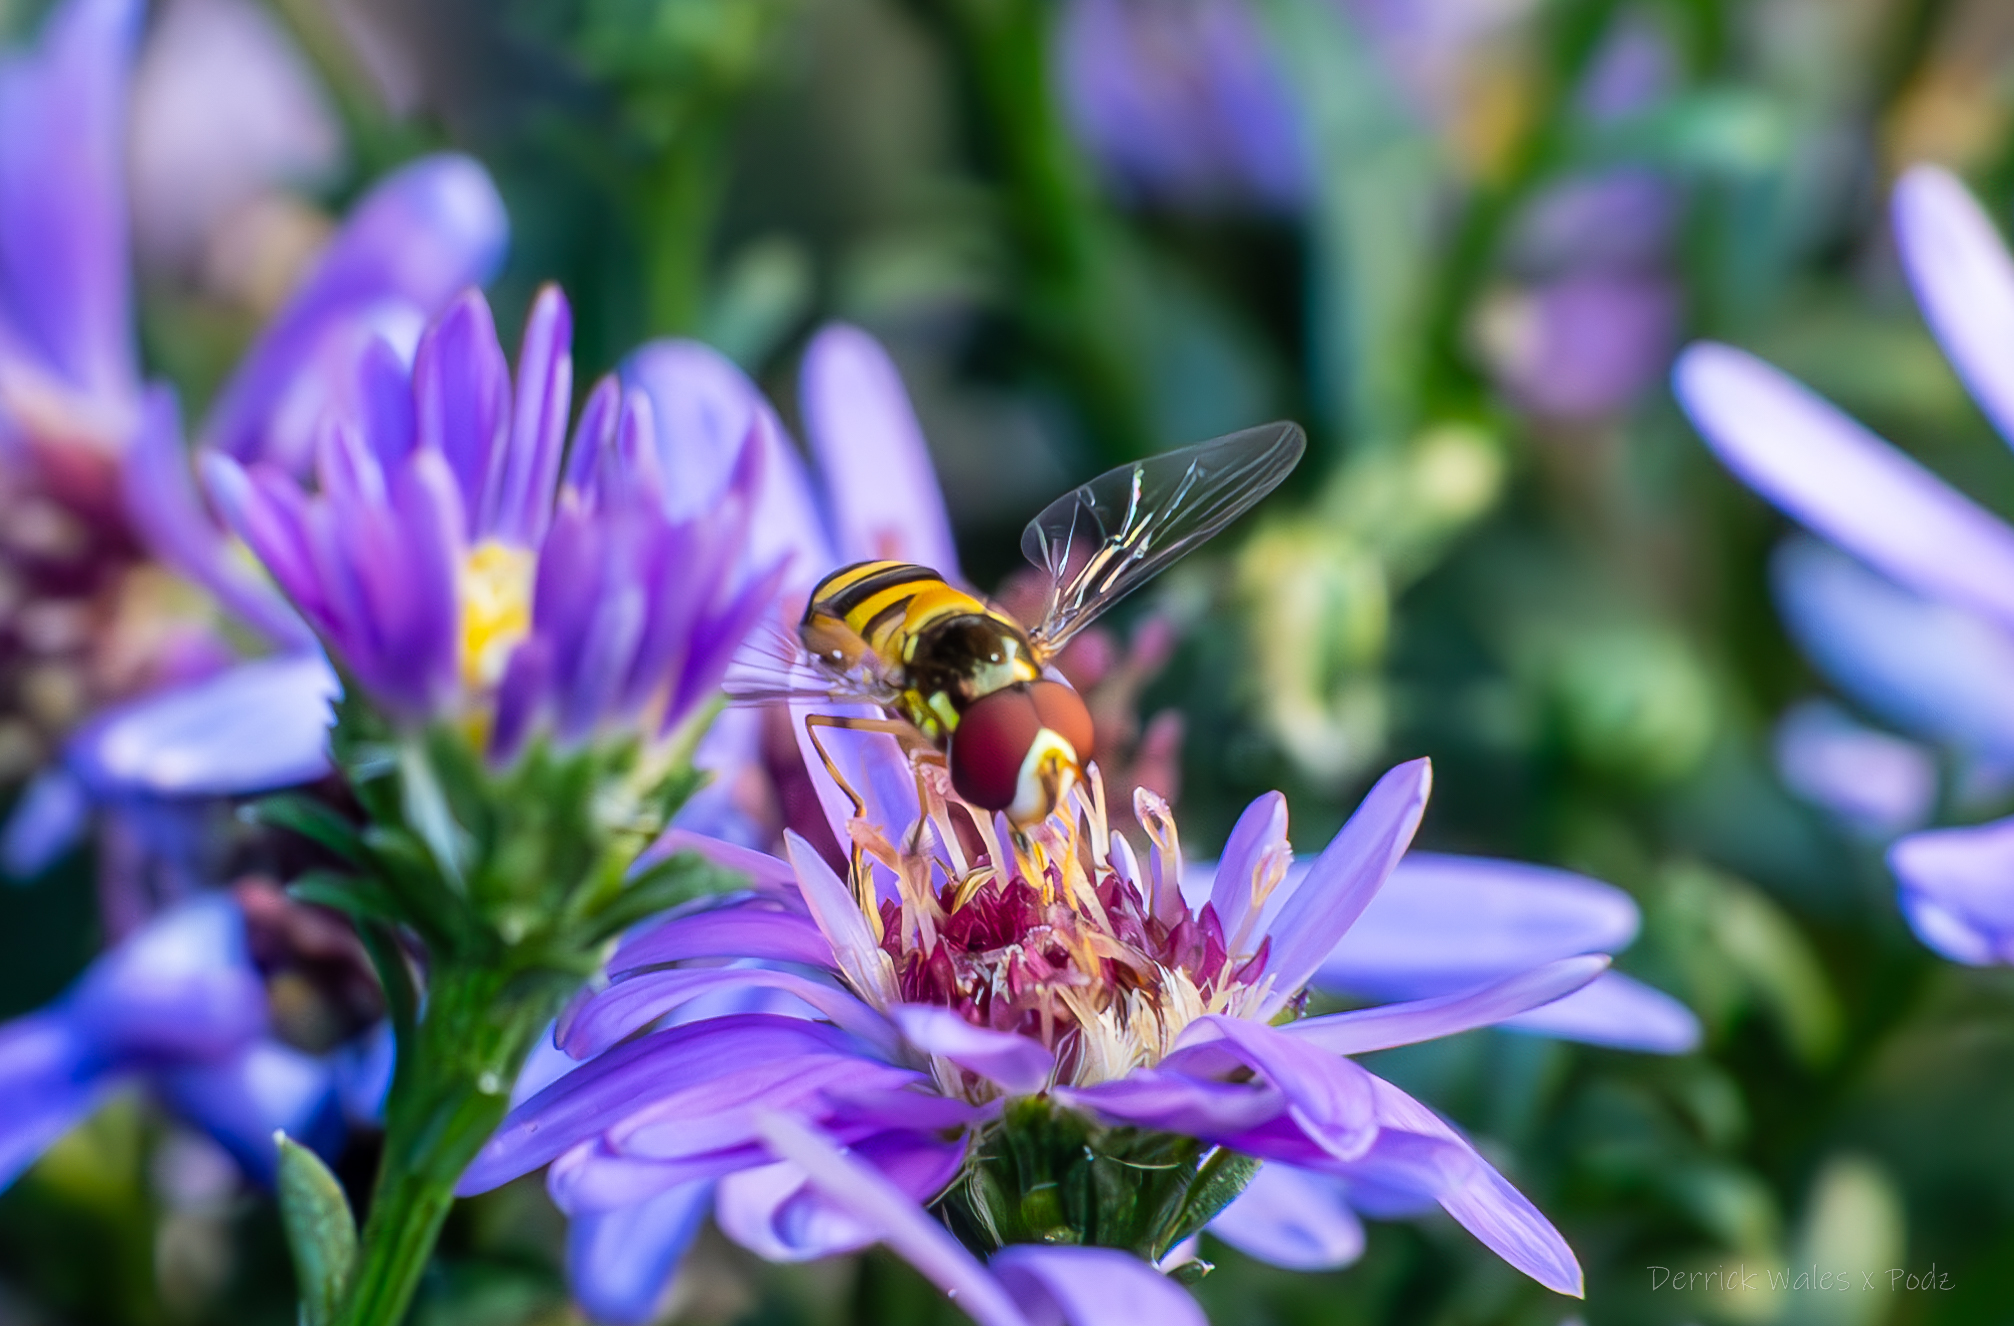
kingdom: Animalia
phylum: Arthropoda
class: Insecta
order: Diptera
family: Syrphidae
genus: Allograpta
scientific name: Allograpta obliqua
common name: Common oblique syrphid
